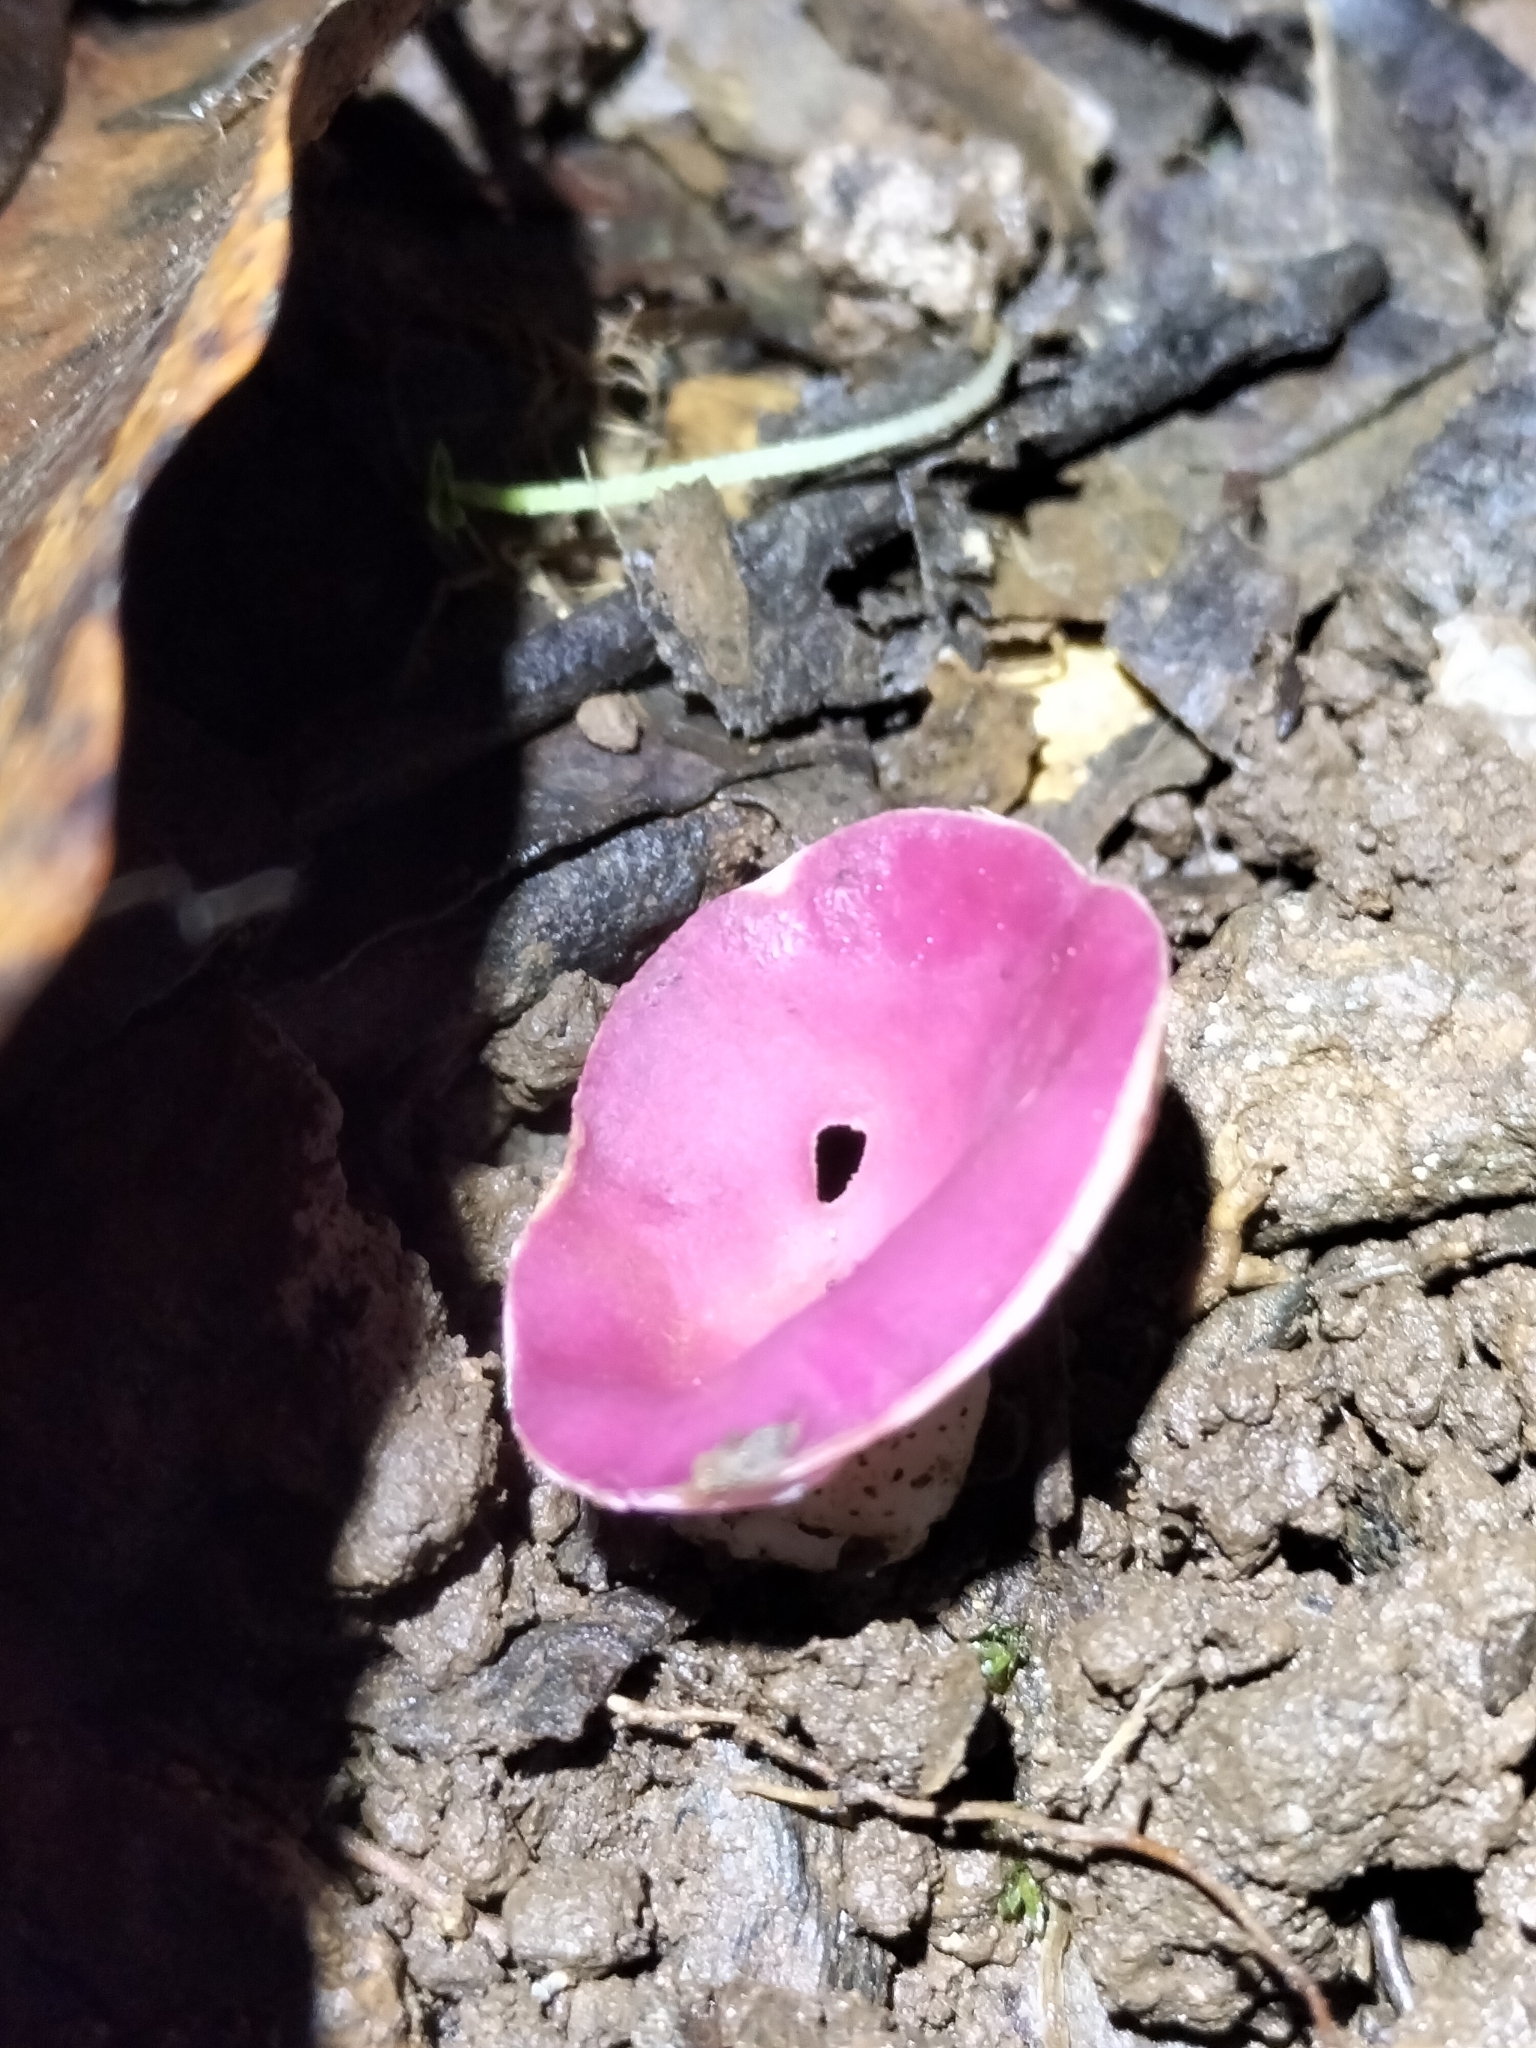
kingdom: Fungi
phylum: Ascomycota
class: Pezizomycetes
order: Pezizales
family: Sarcoscyphaceae
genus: Phillipsia
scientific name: Phillipsia subpurpurea
